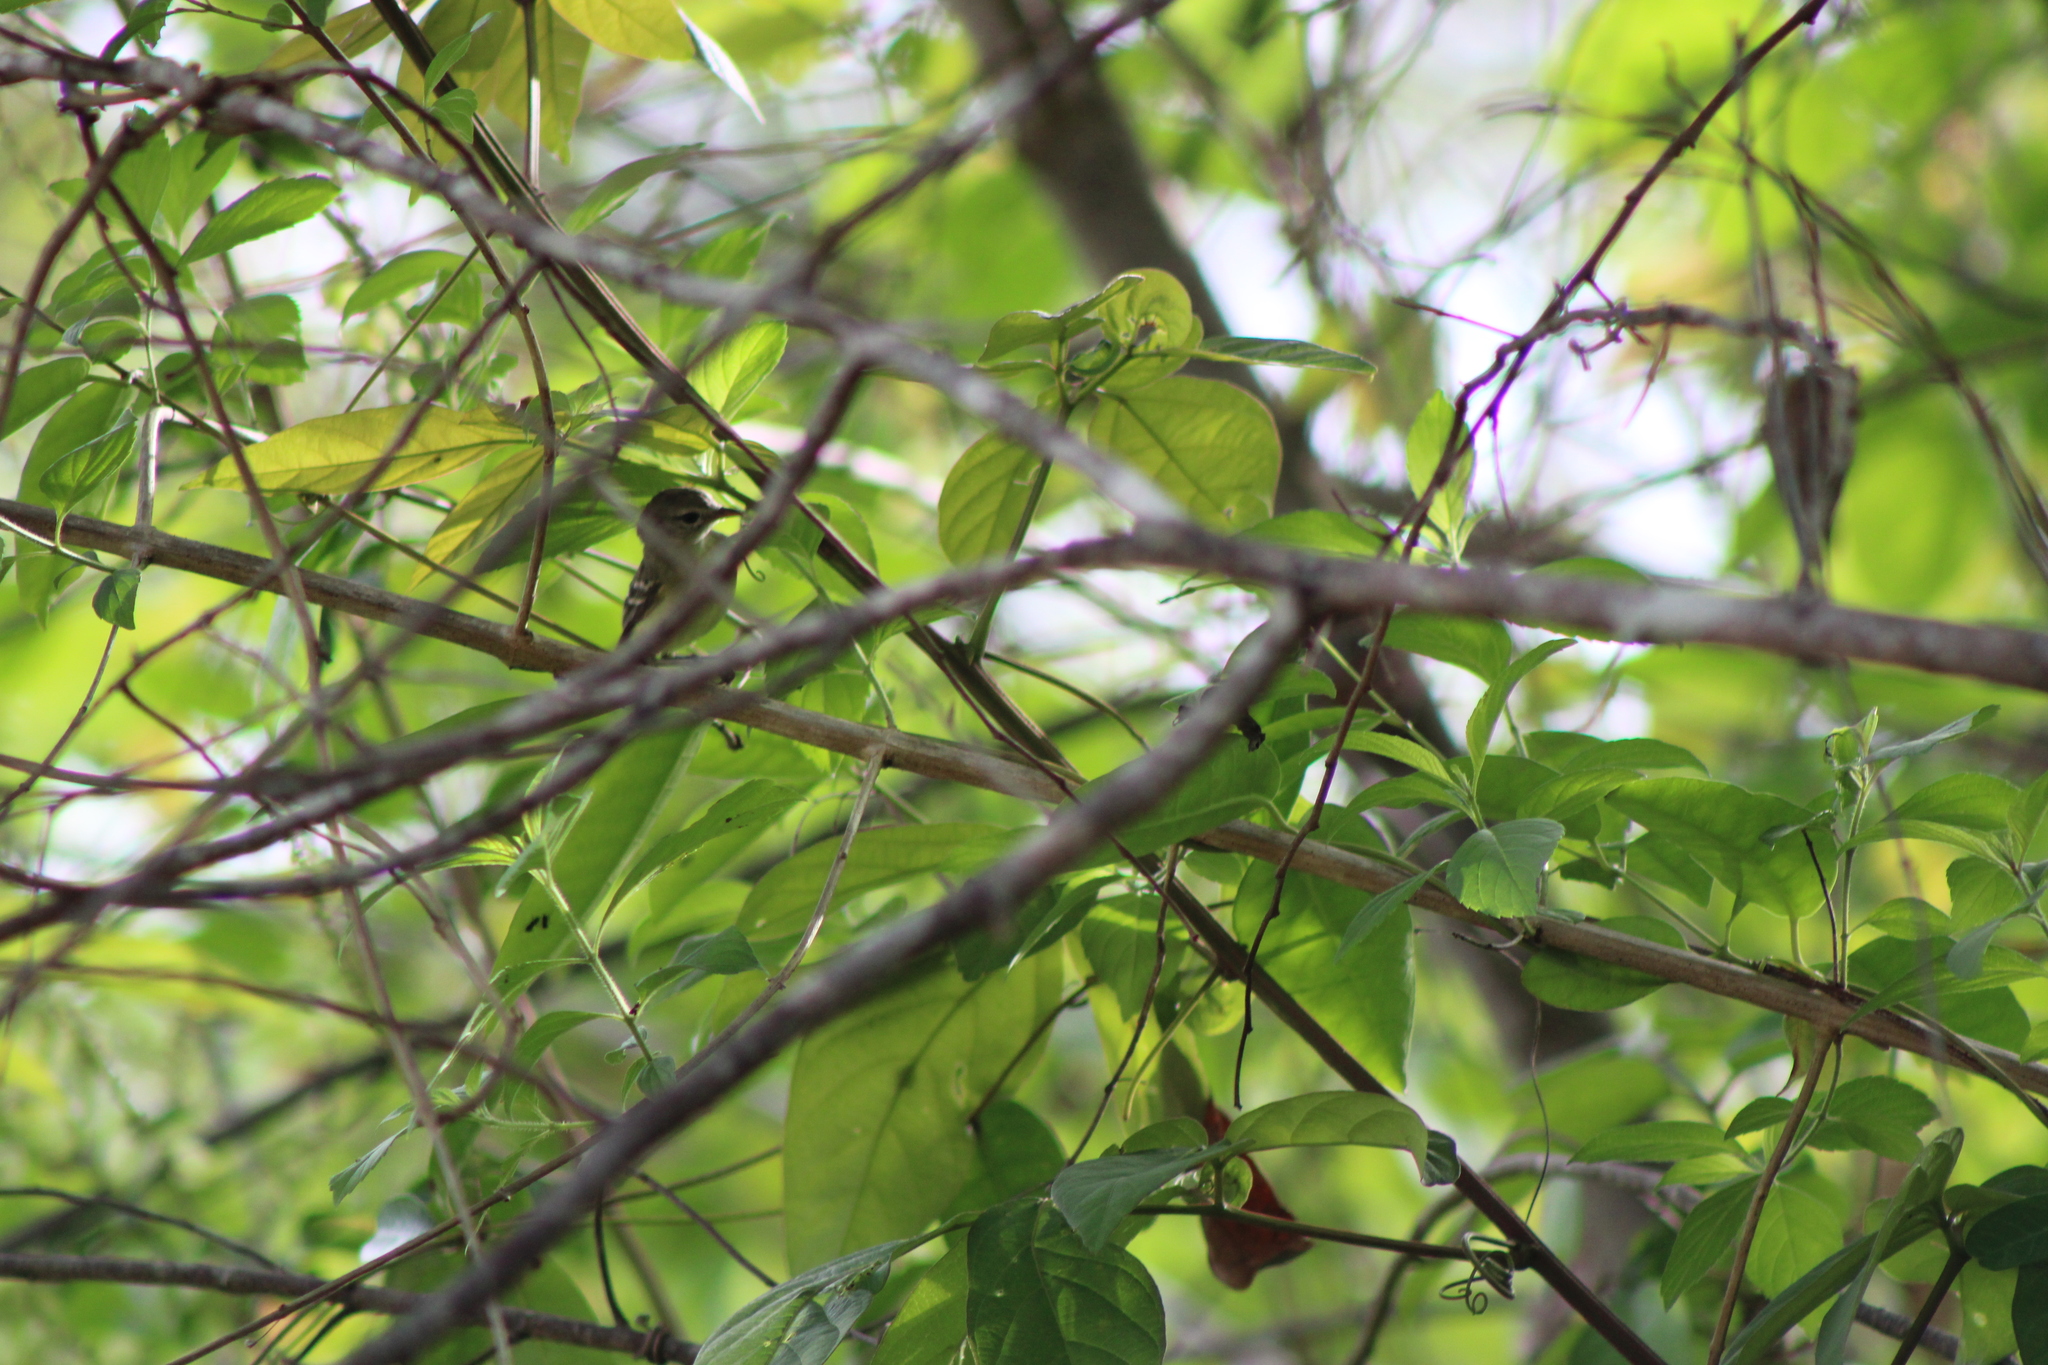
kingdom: Animalia
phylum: Chordata
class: Aves
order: Passeriformes
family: Tyrannidae
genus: Camptostoma
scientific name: Camptostoma obsoletum
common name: Southern beardless-tyrannulet
